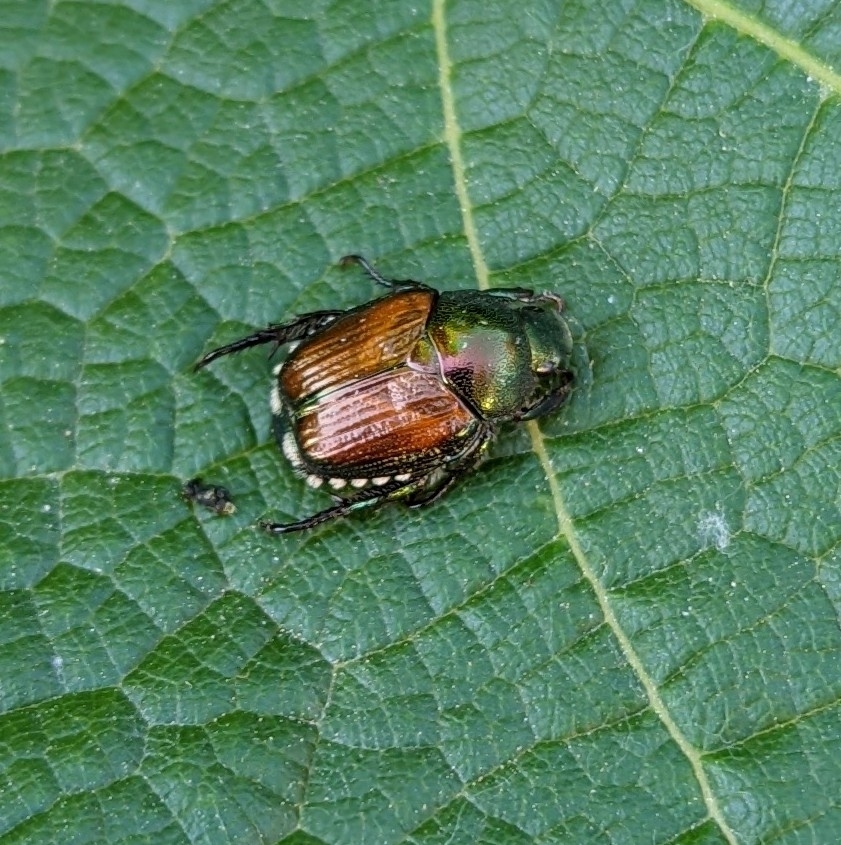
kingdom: Animalia
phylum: Arthropoda
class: Insecta
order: Coleoptera
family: Scarabaeidae
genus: Popillia
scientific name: Popillia japonica
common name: Japanese beetle
